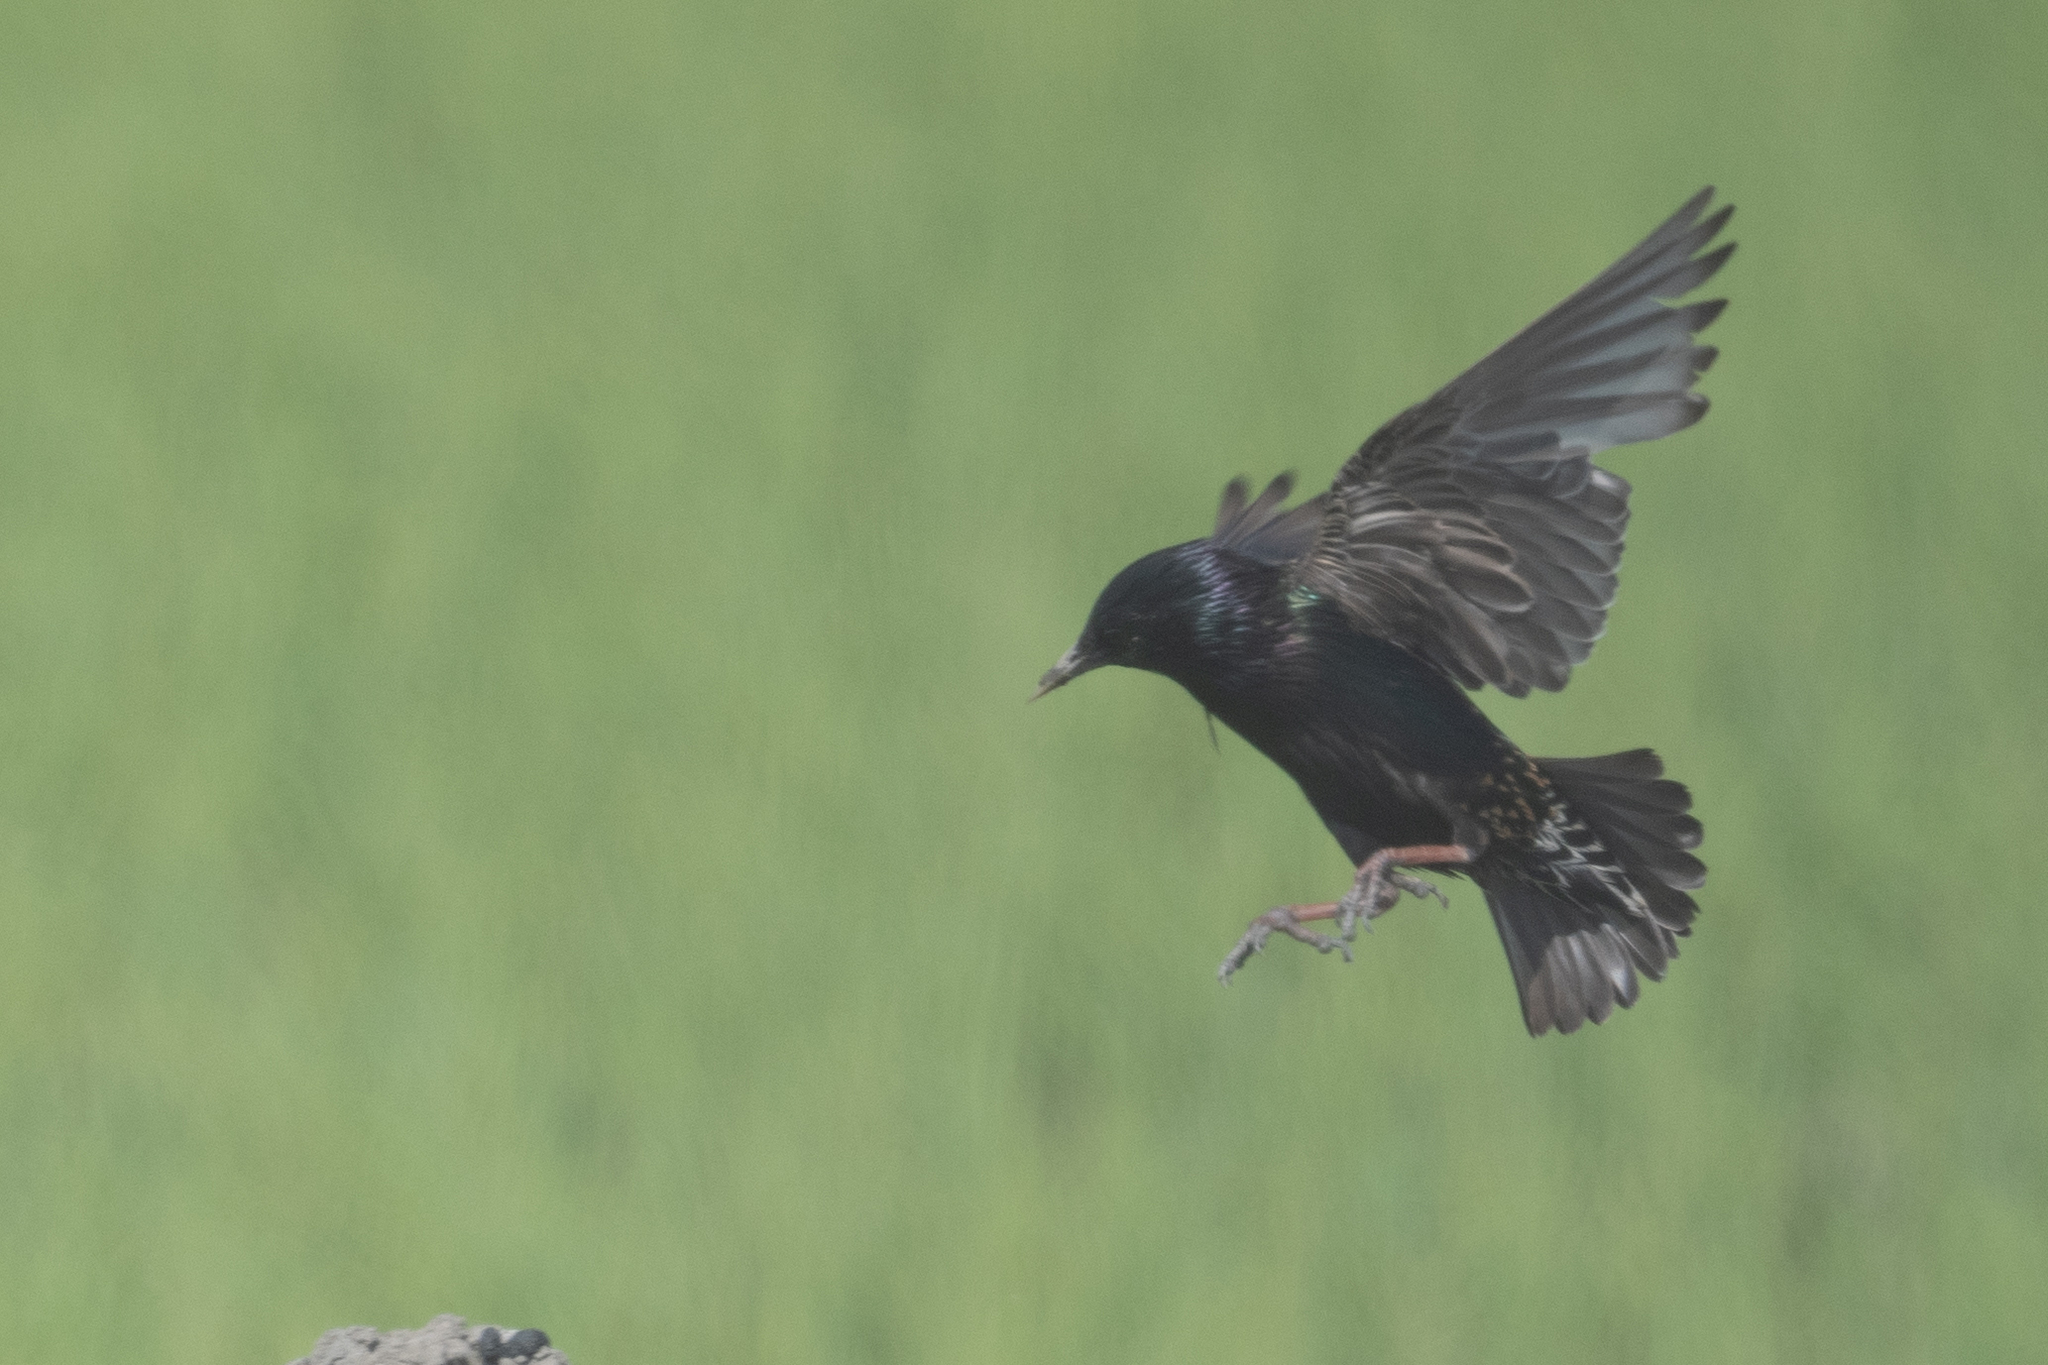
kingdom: Animalia
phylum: Chordata
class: Aves
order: Passeriformes
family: Sturnidae
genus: Sturnus
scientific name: Sturnus vulgaris
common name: Common starling
